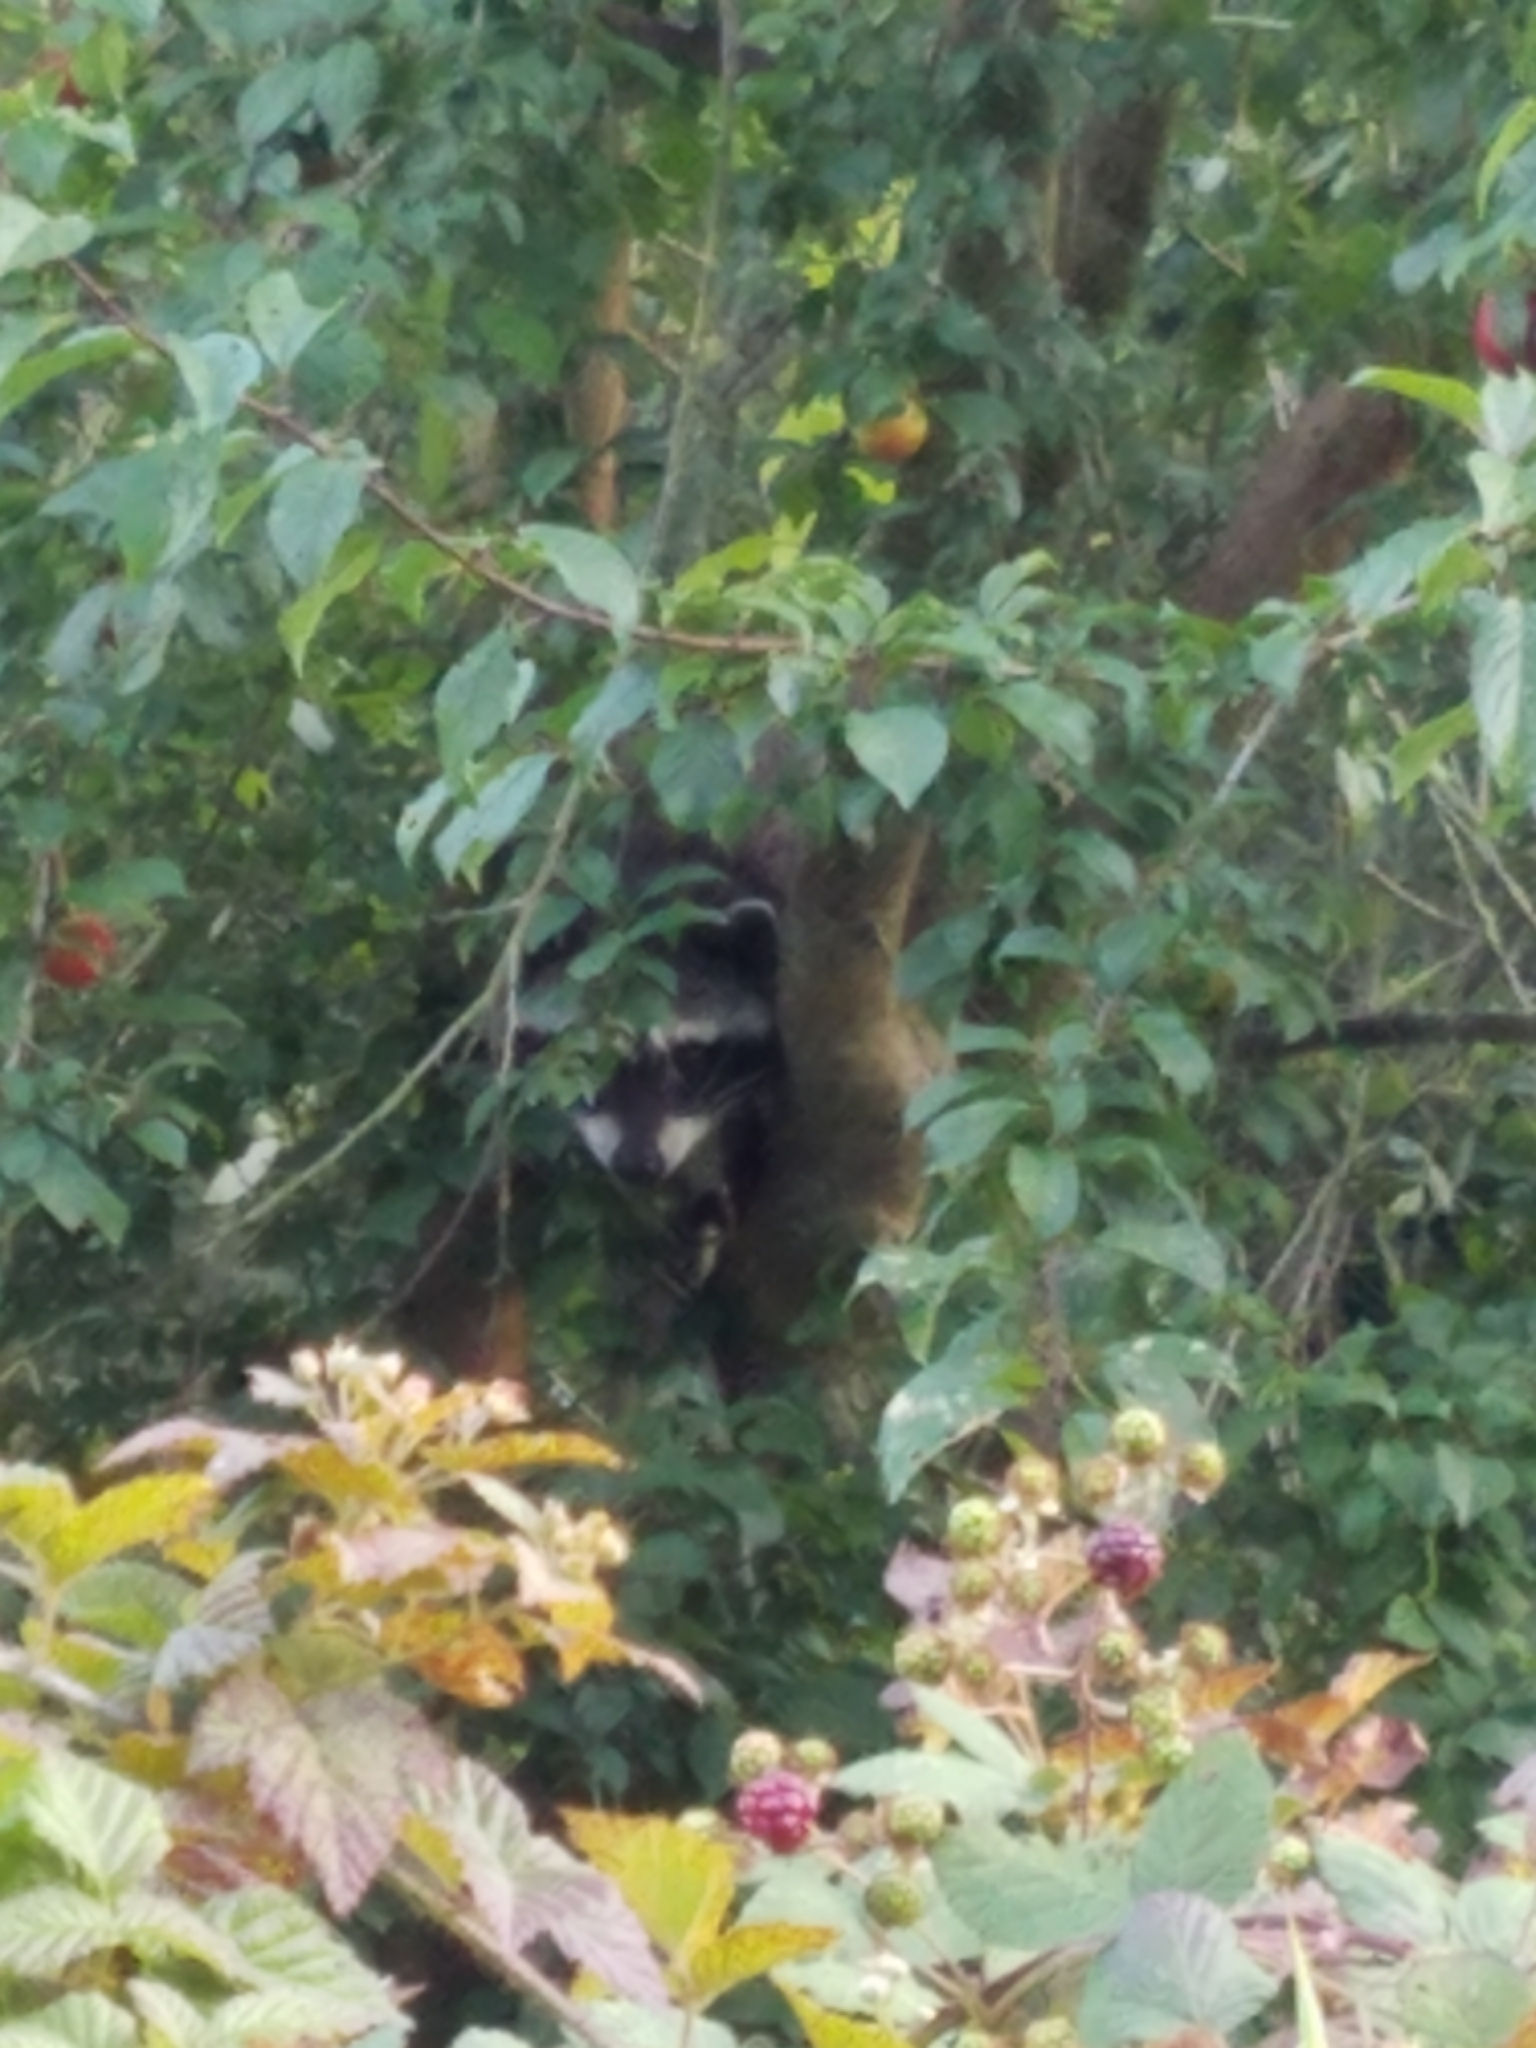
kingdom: Animalia
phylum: Chordata
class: Mammalia
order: Carnivora
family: Procyonidae
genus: Procyon
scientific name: Procyon lotor
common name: Raccoon
